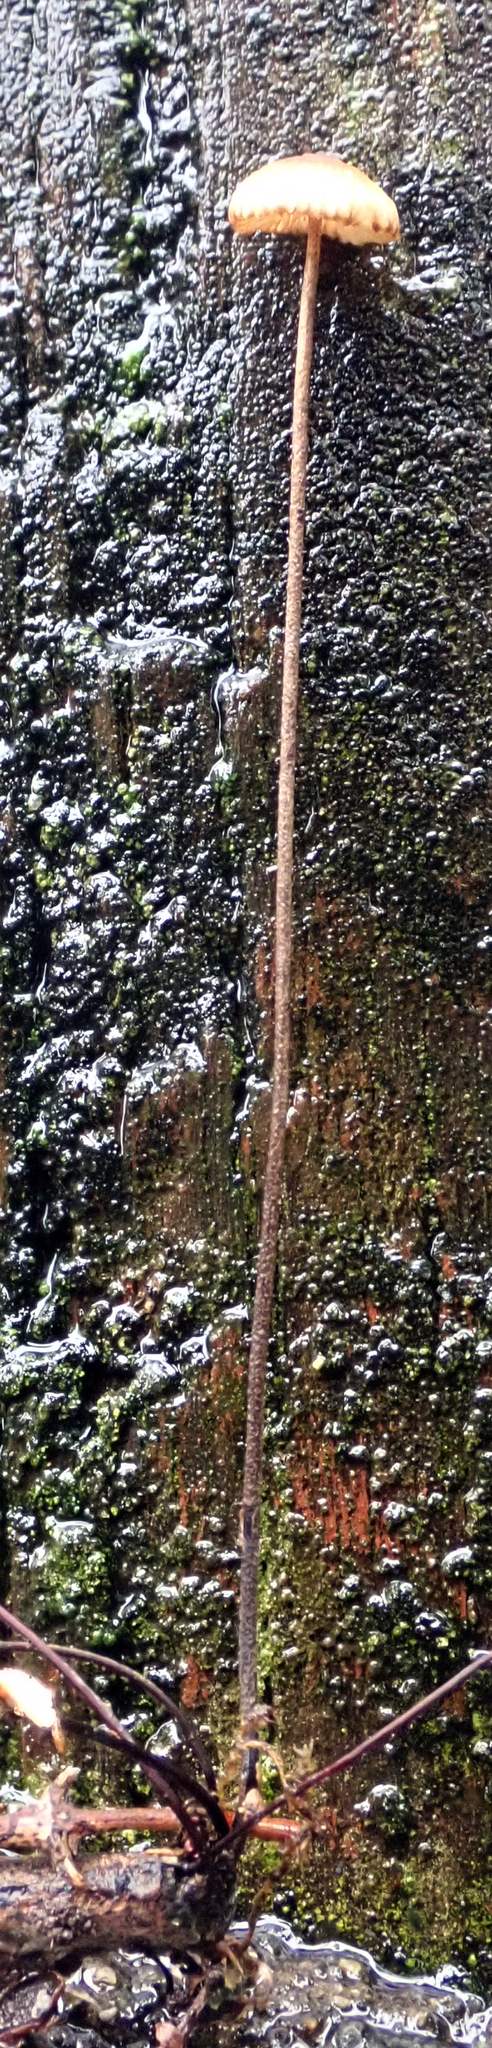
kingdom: Fungi
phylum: Basidiomycota
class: Agaricomycetes
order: Agaricales
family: Marasmiaceae
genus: Crinipellis
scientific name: Crinipellis procera
